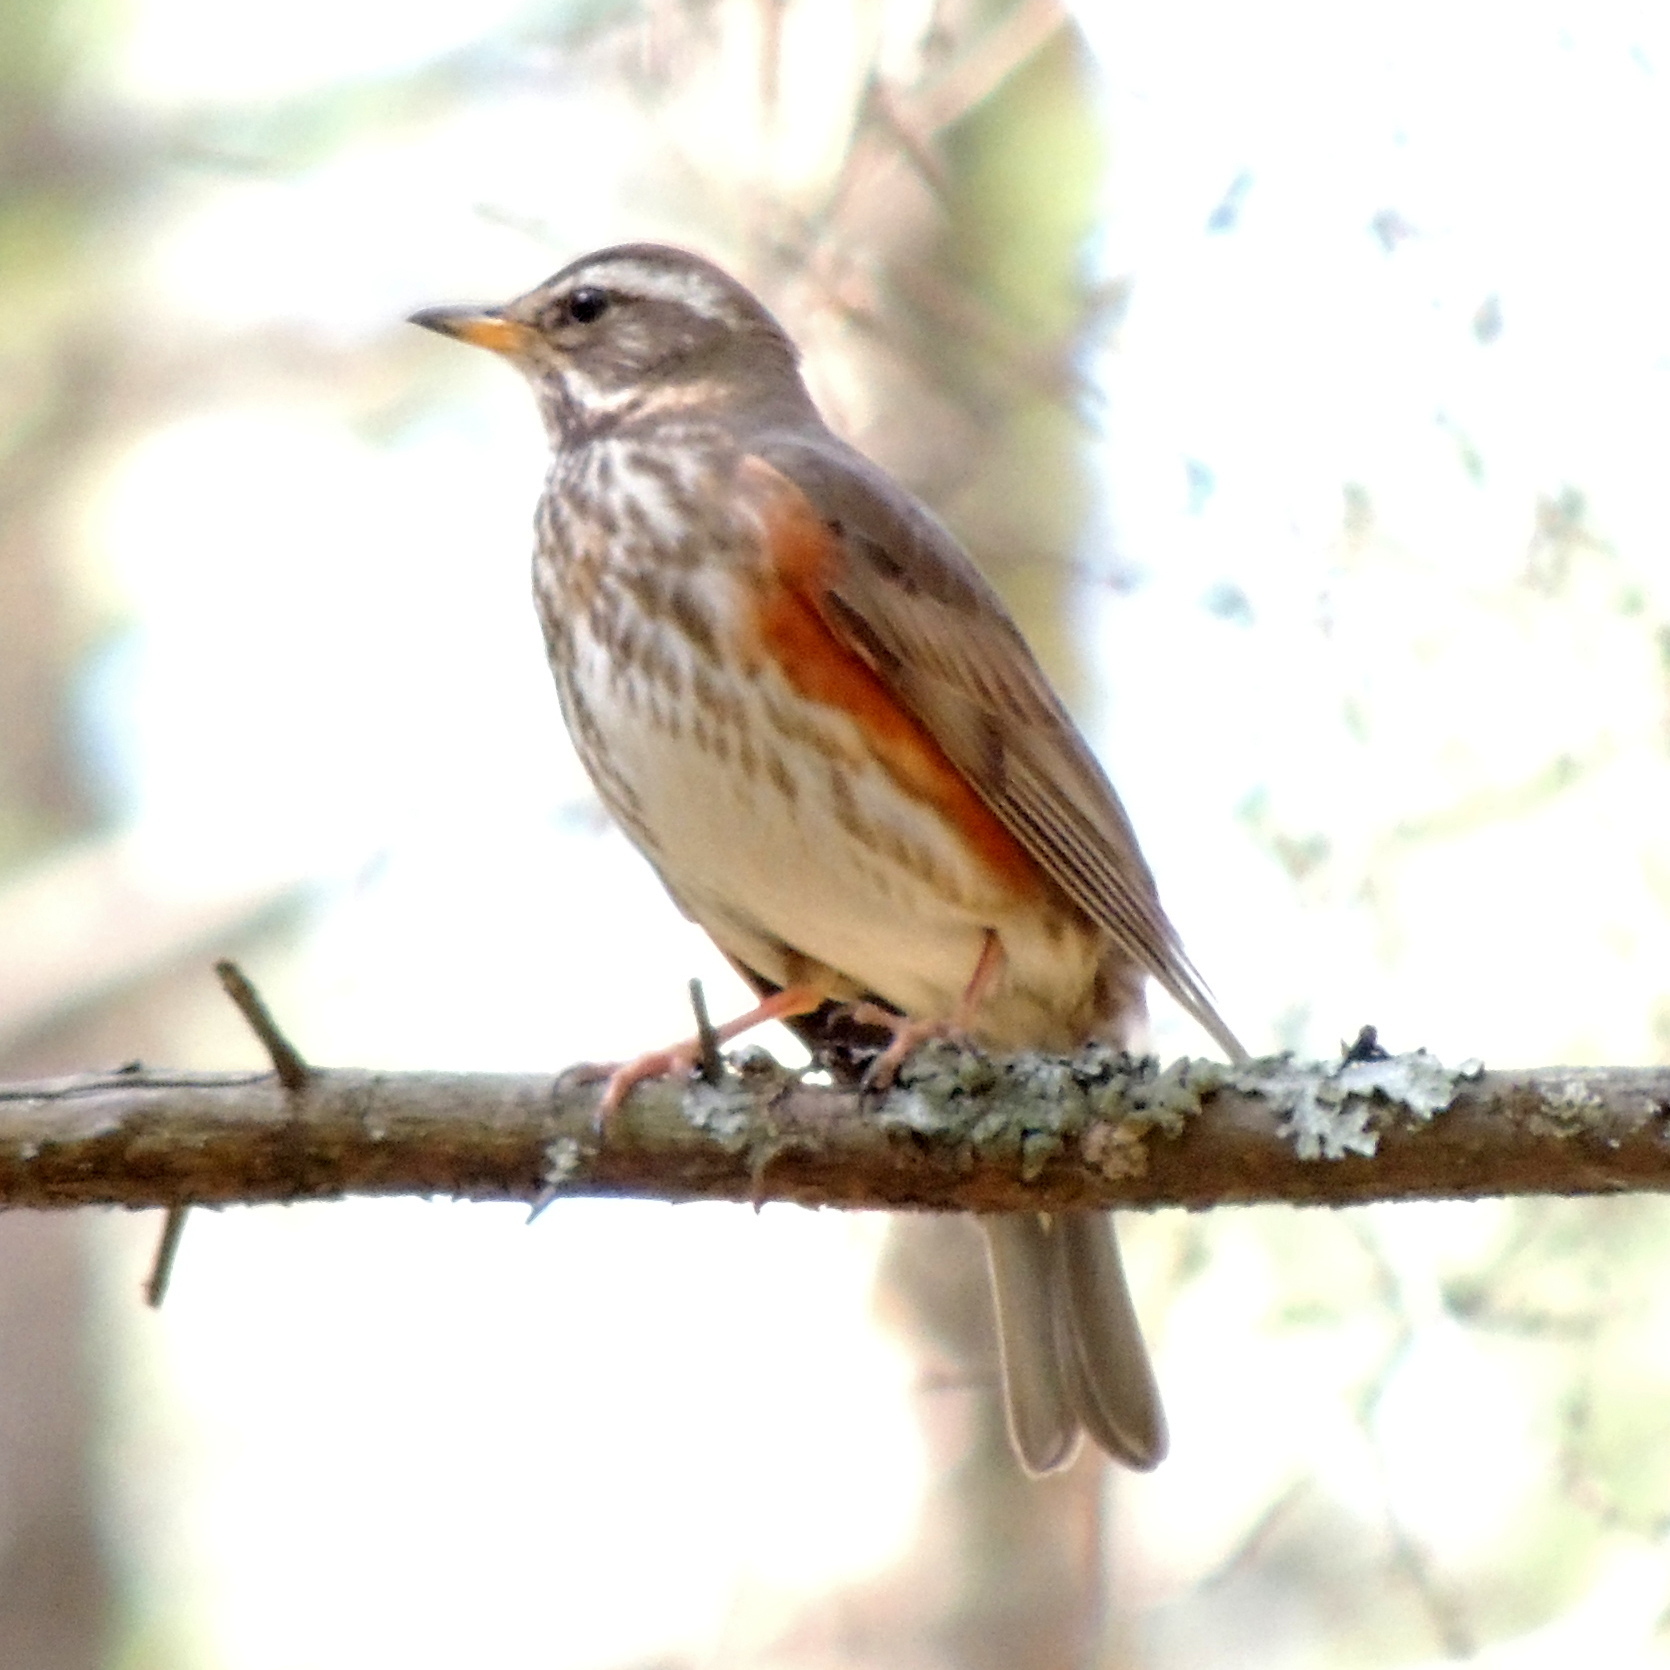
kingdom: Animalia
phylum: Chordata
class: Aves
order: Passeriformes
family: Turdidae
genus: Turdus
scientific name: Turdus iliacus
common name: Redwing
